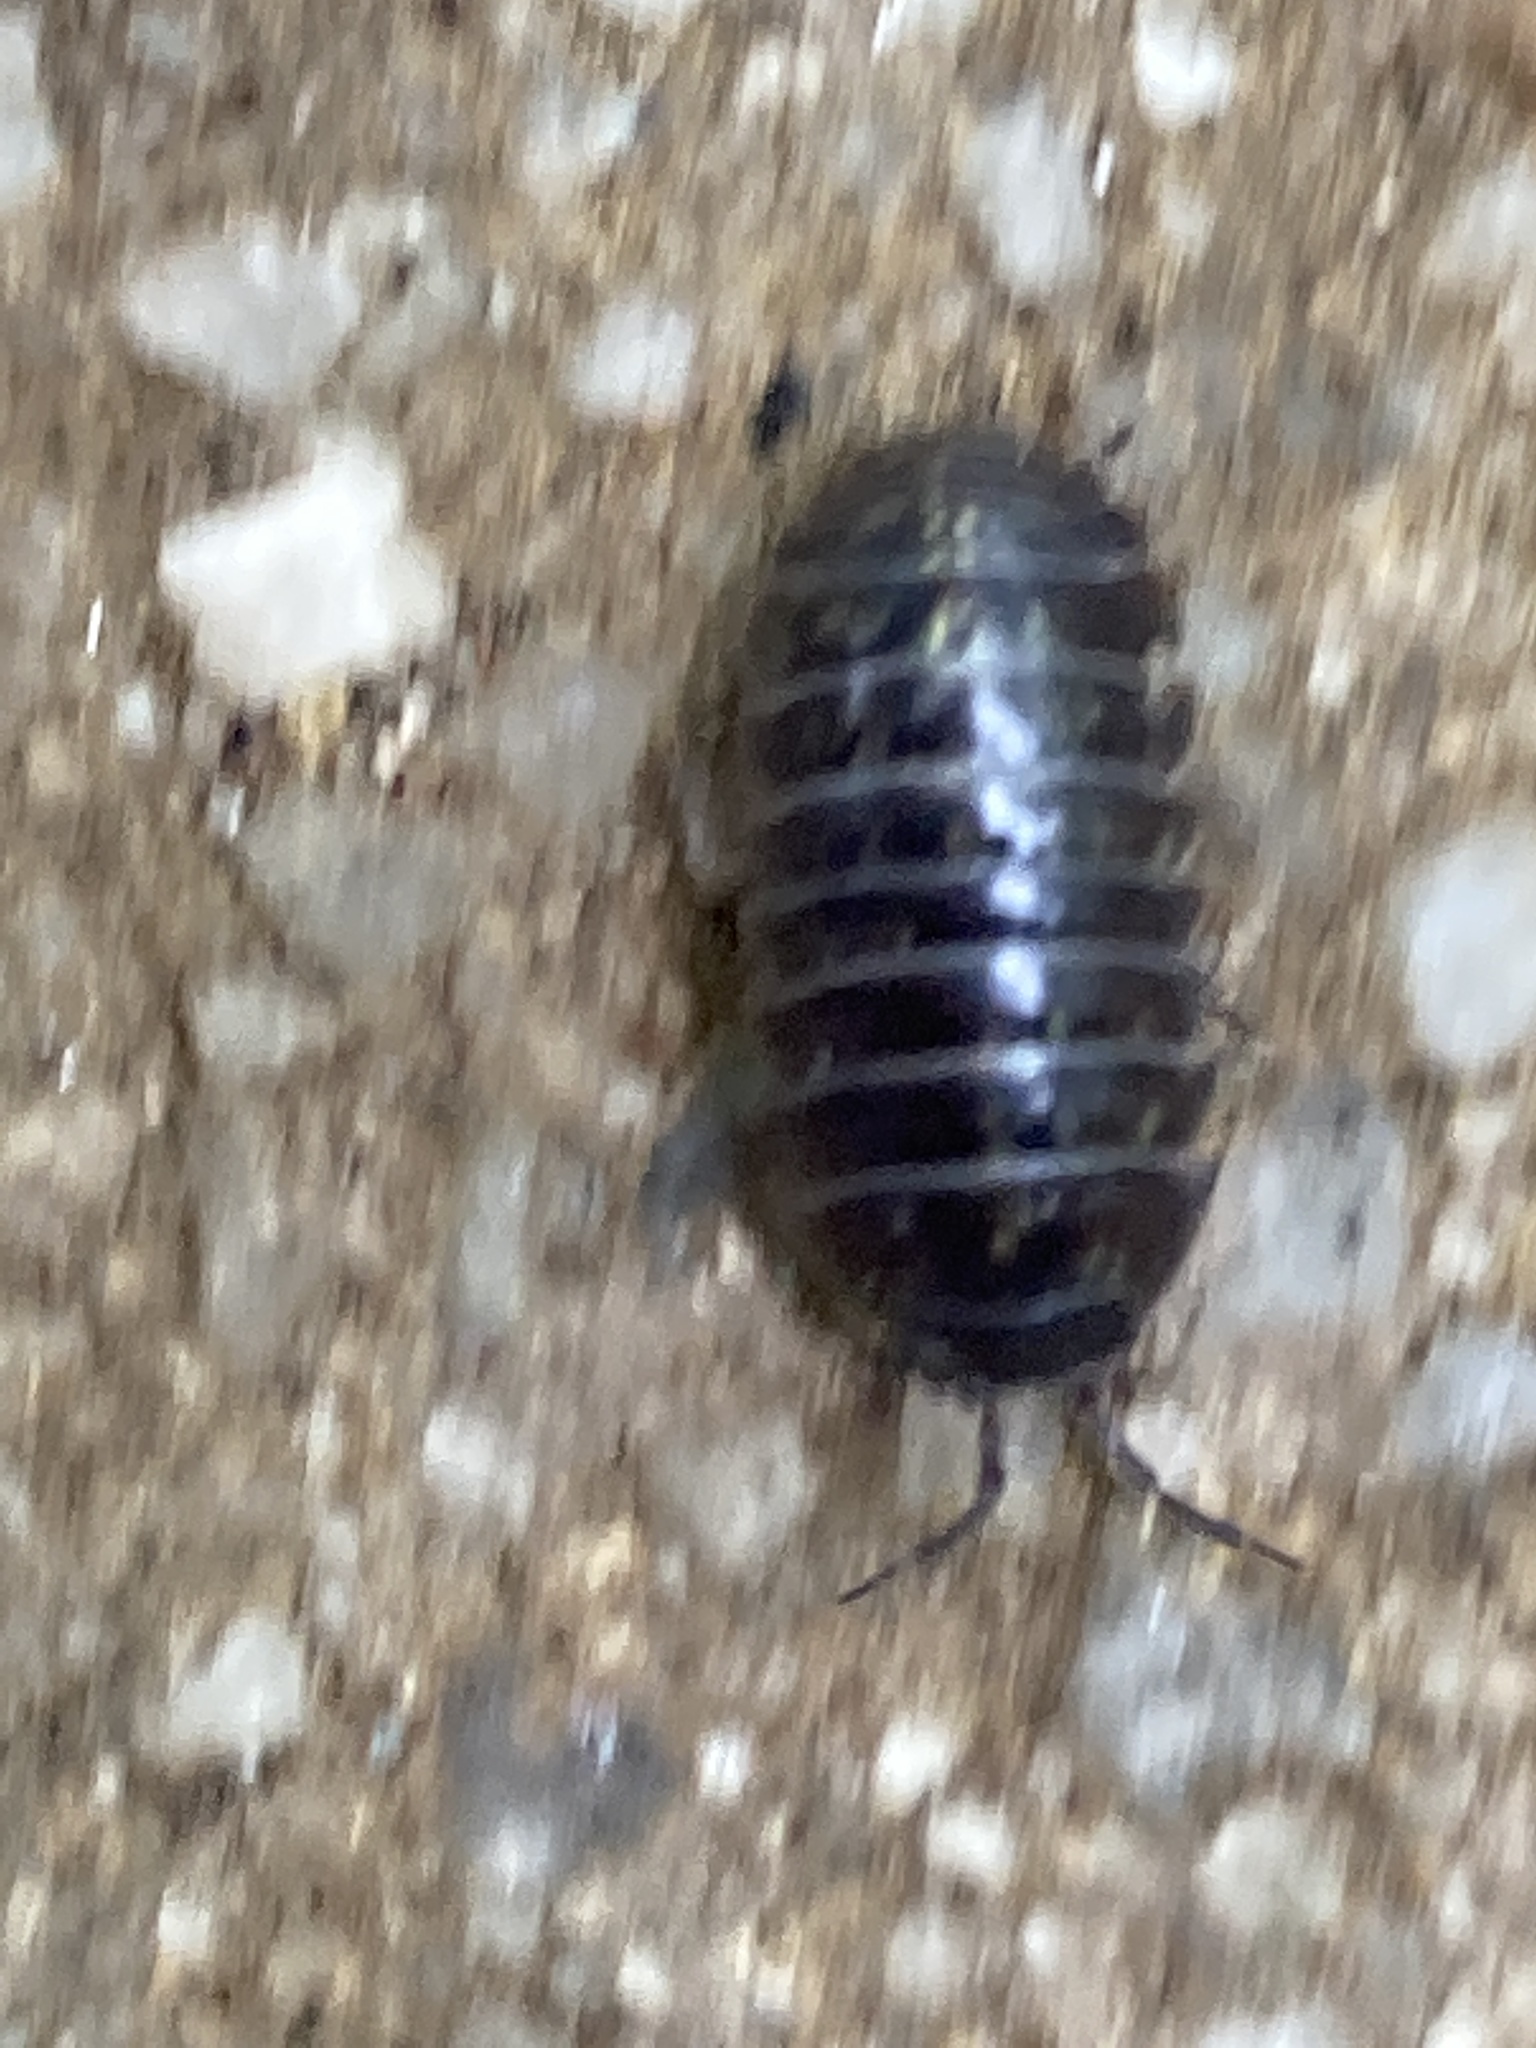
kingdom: Animalia
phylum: Arthropoda
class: Malacostraca
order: Isopoda
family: Armadillidiidae
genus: Armadillidium
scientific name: Armadillidium vulgare
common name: Common pill woodlouse
